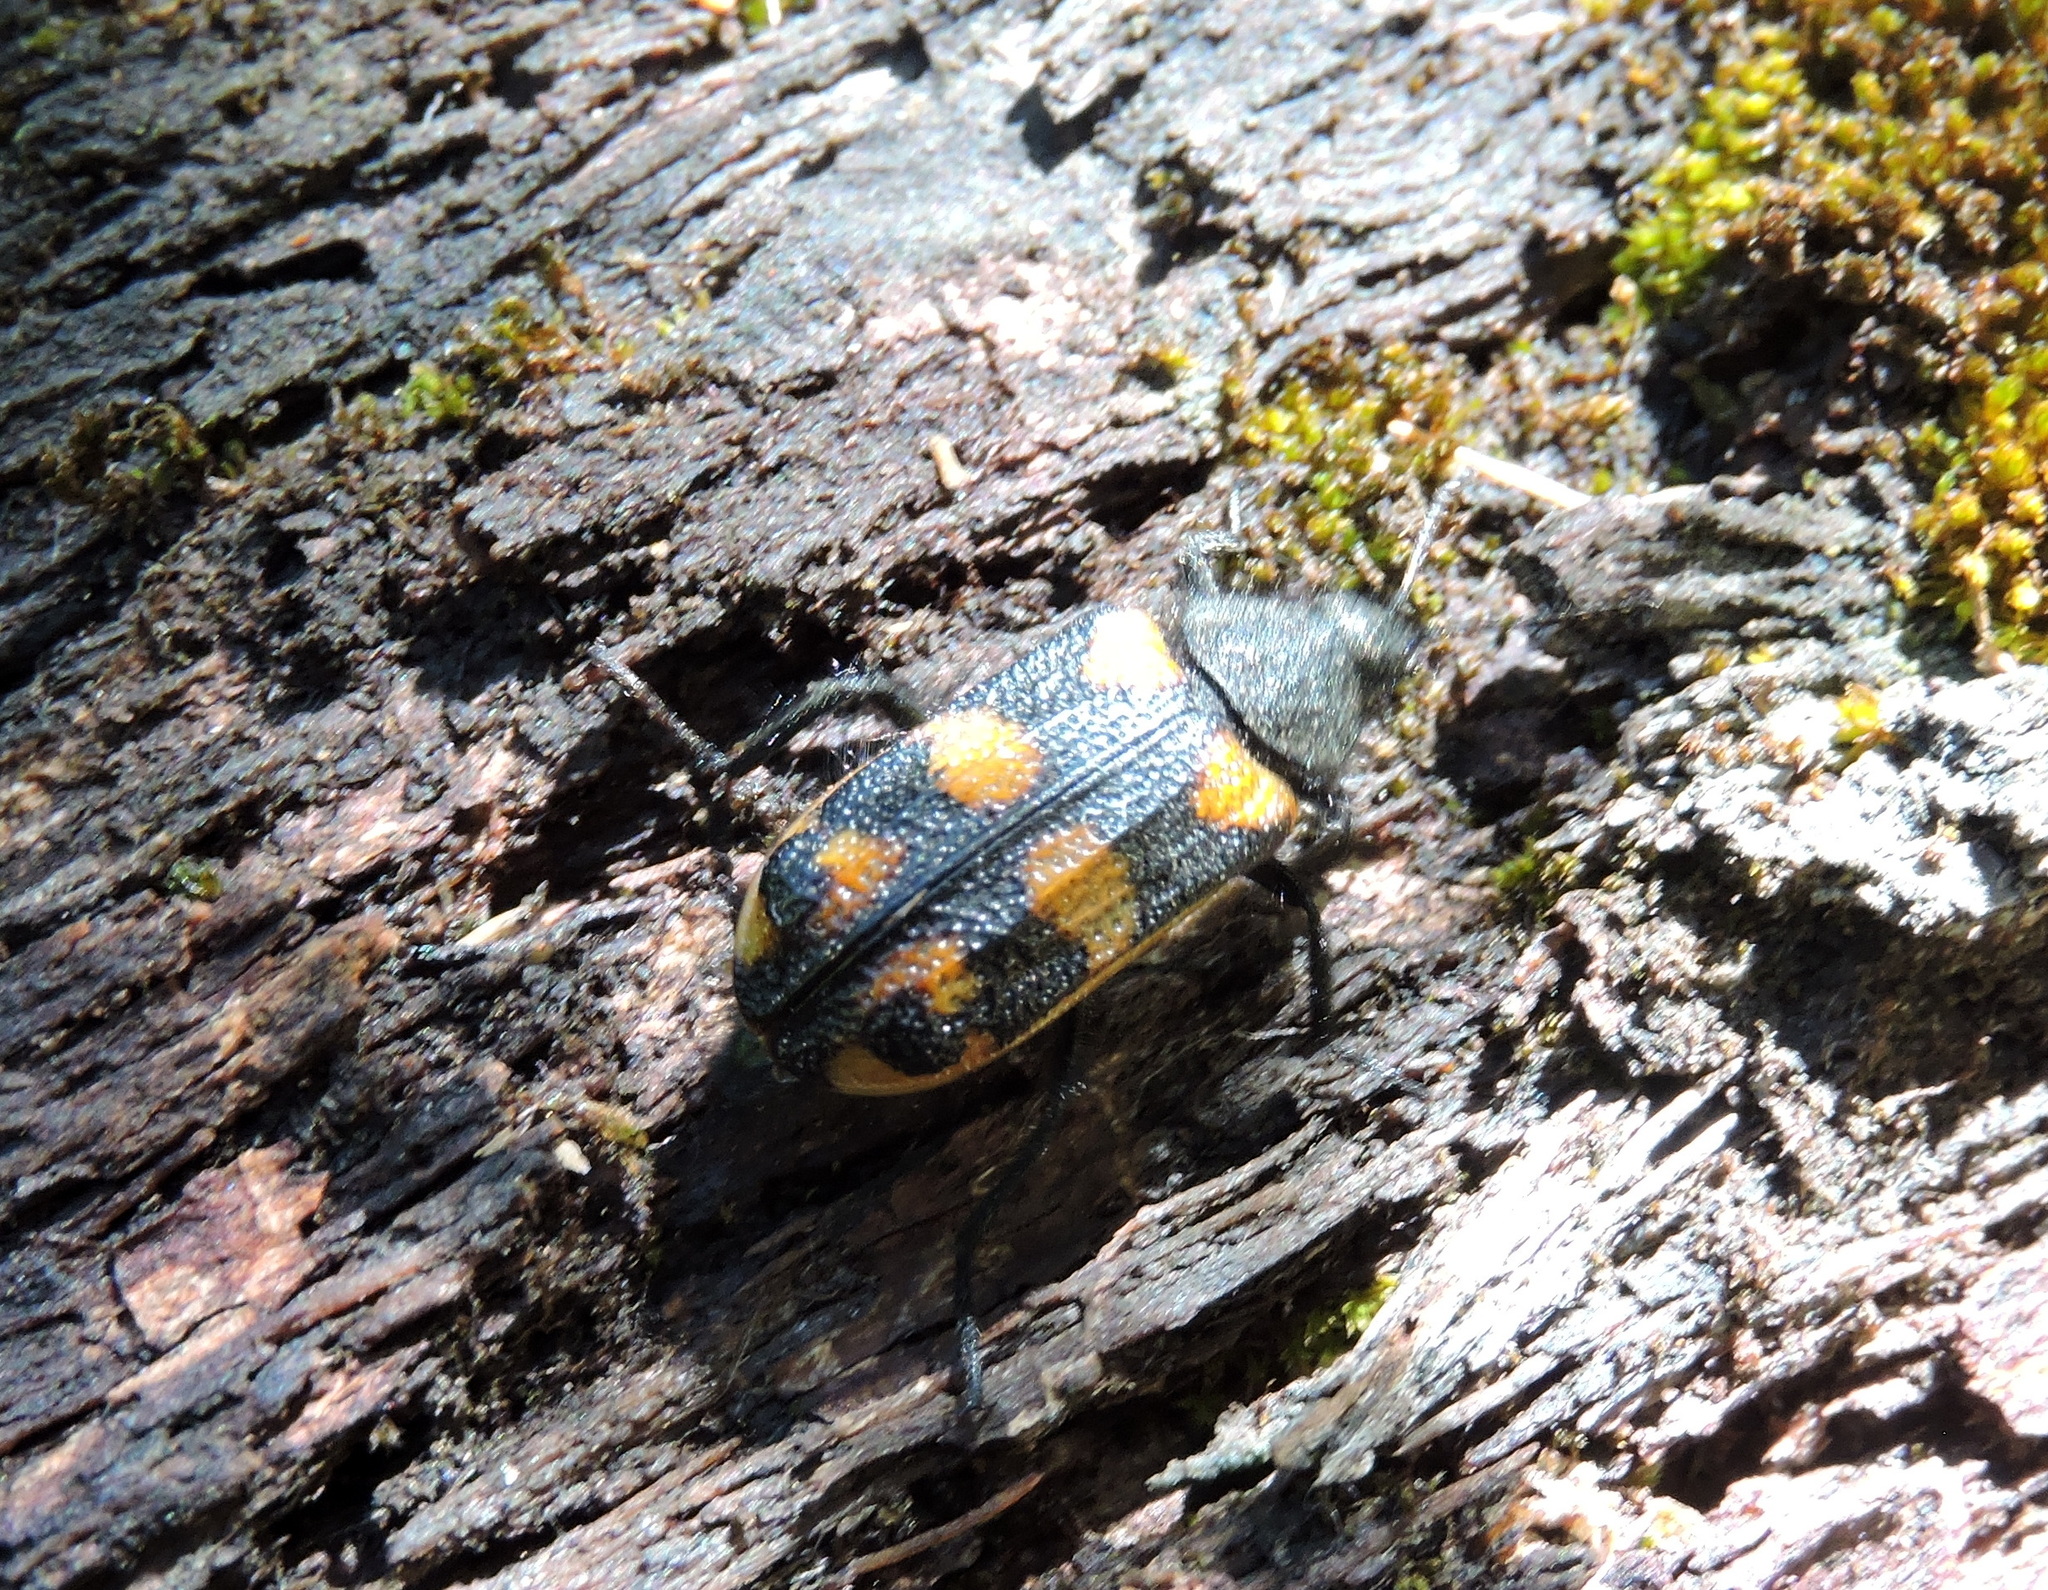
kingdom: Animalia
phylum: Arthropoda
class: Insecta
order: Coleoptera
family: Melyridae
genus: Astylus
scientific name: Astylus
